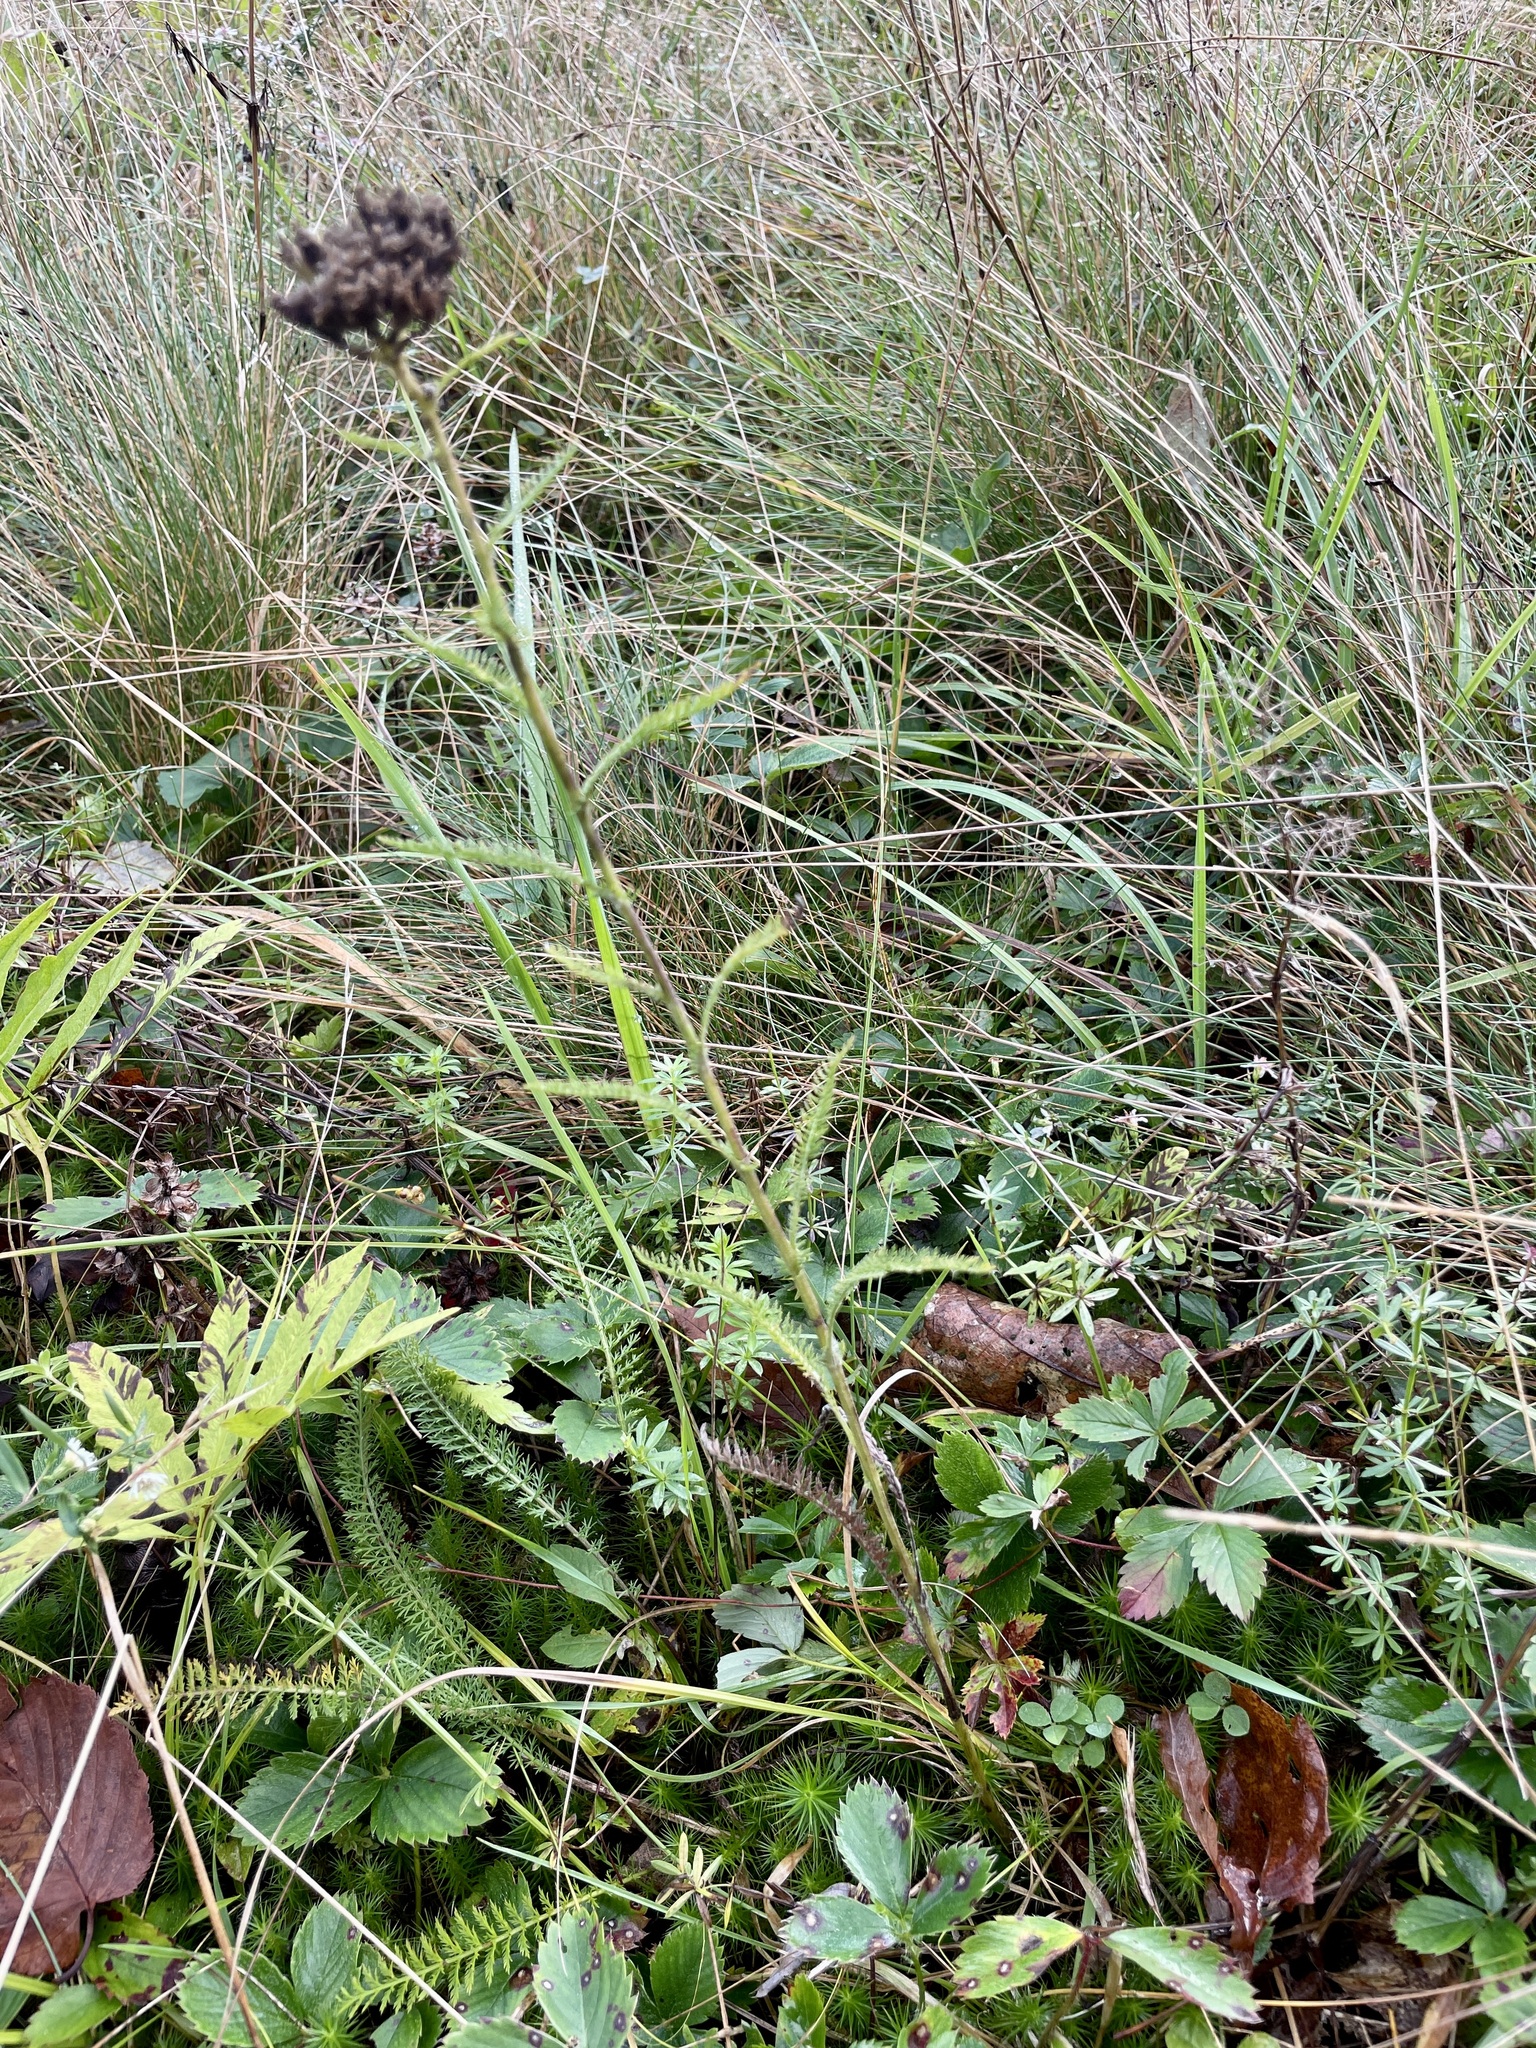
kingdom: Plantae
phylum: Tracheophyta
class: Magnoliopsida
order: Asterales
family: Asteraceae
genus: Achillea
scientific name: Achillea millefolium
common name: Yarrow
